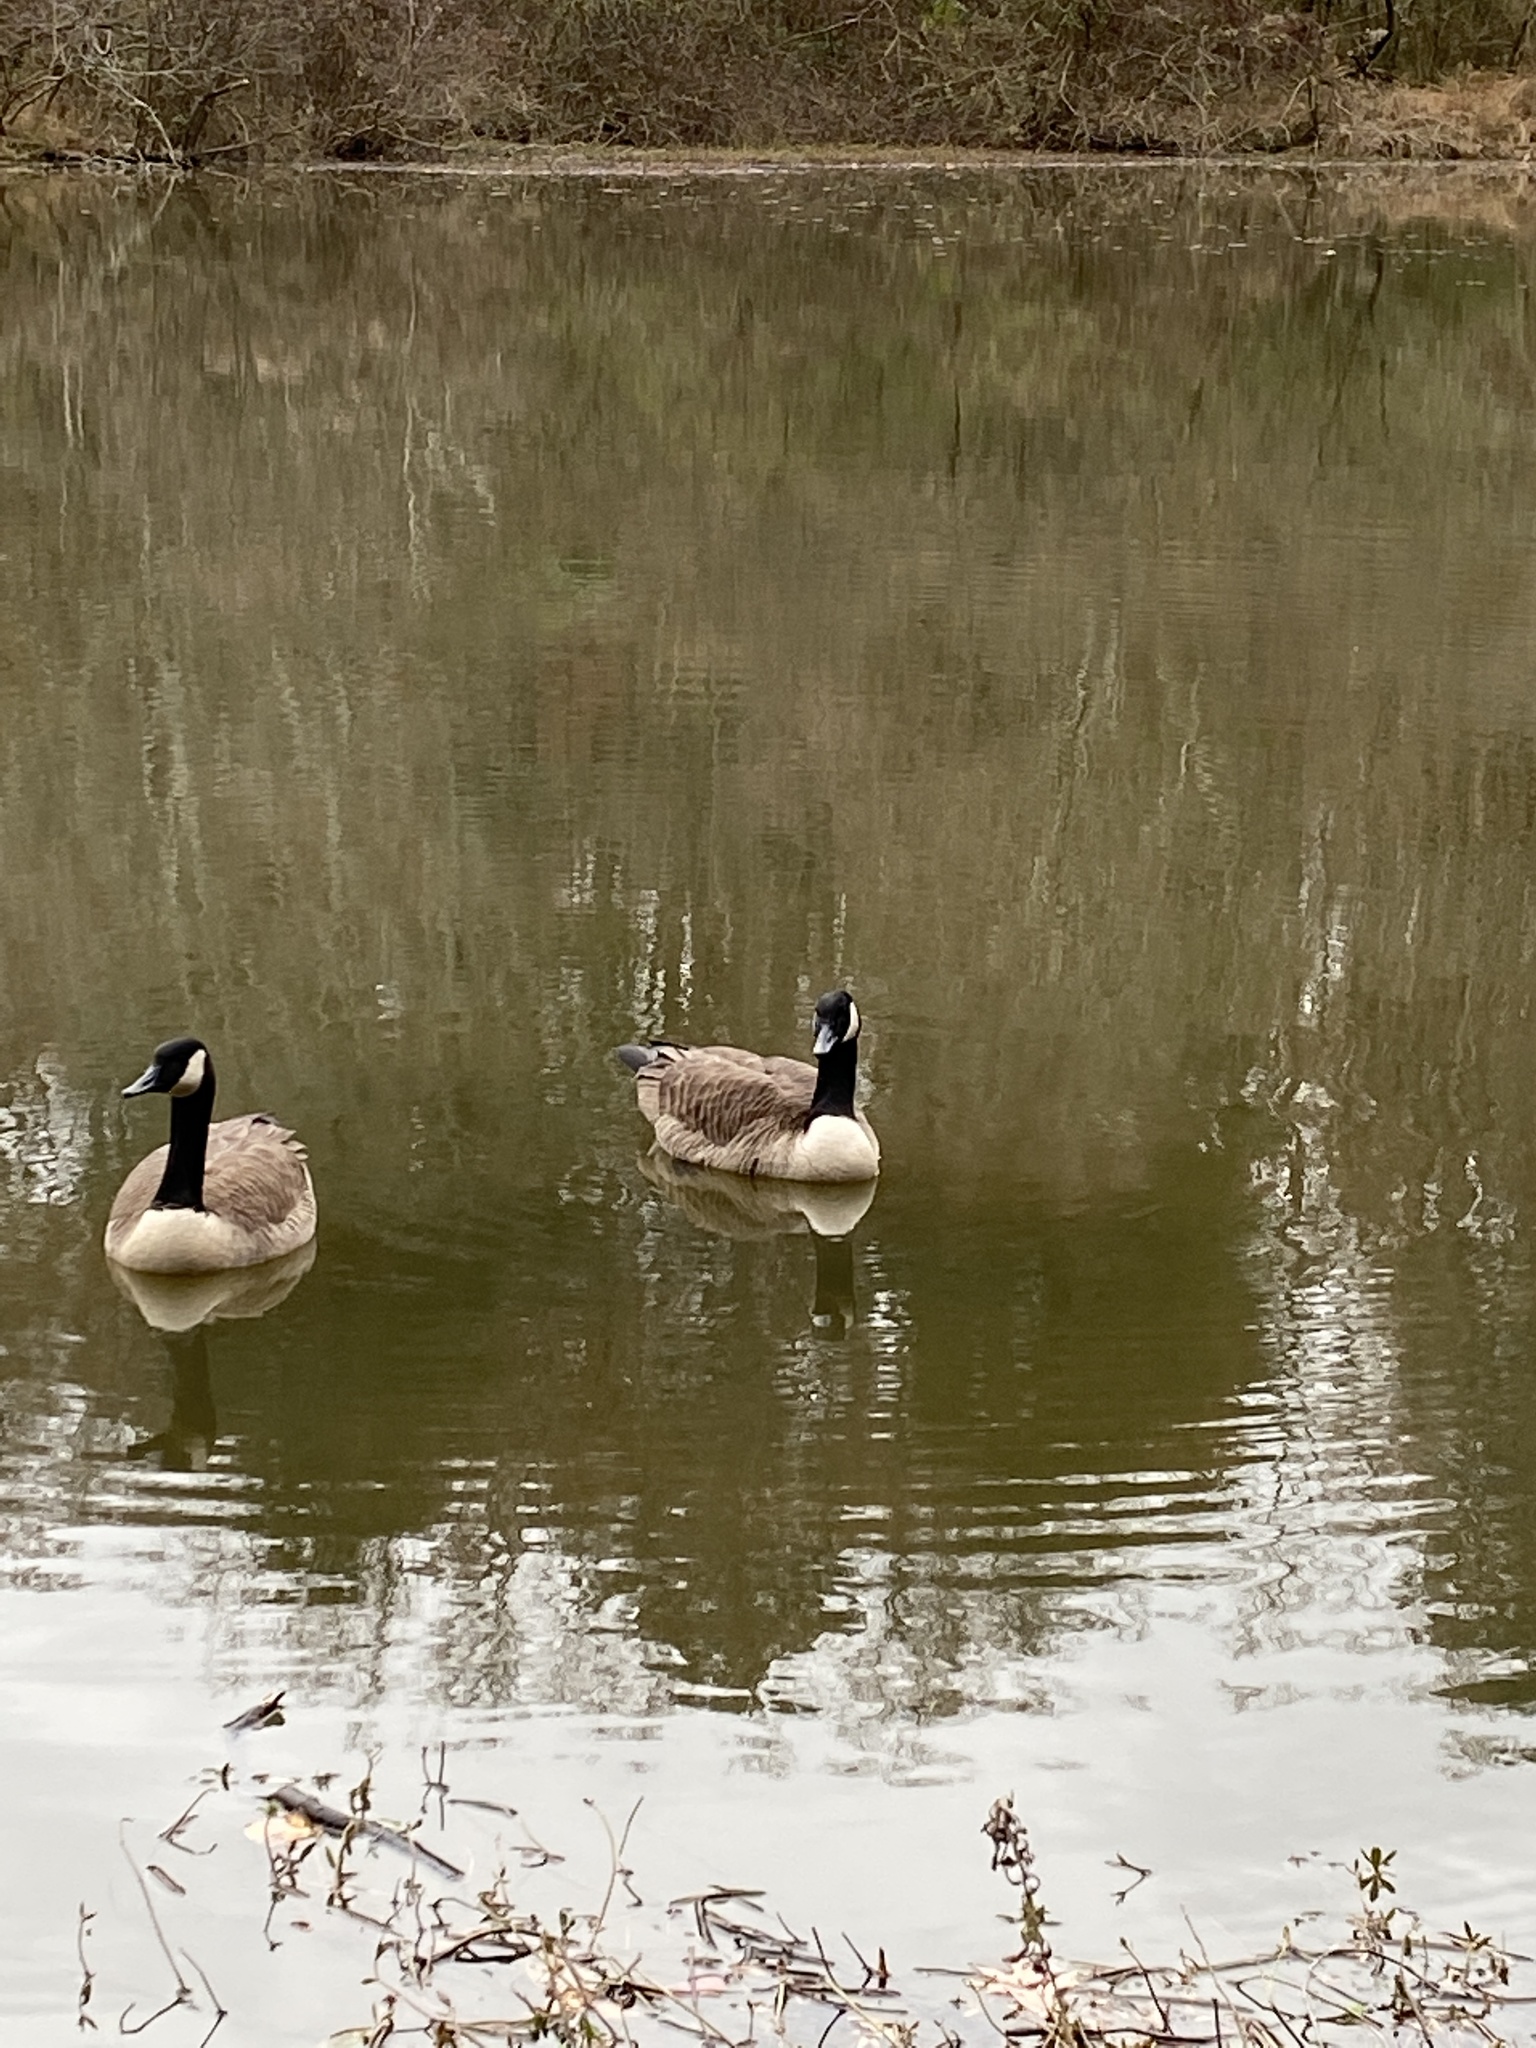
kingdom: Animalia
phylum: Chordata
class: Aves
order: Anseriformes
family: Anatidae
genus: Branta
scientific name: Branta canadensis
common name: Canada goose
